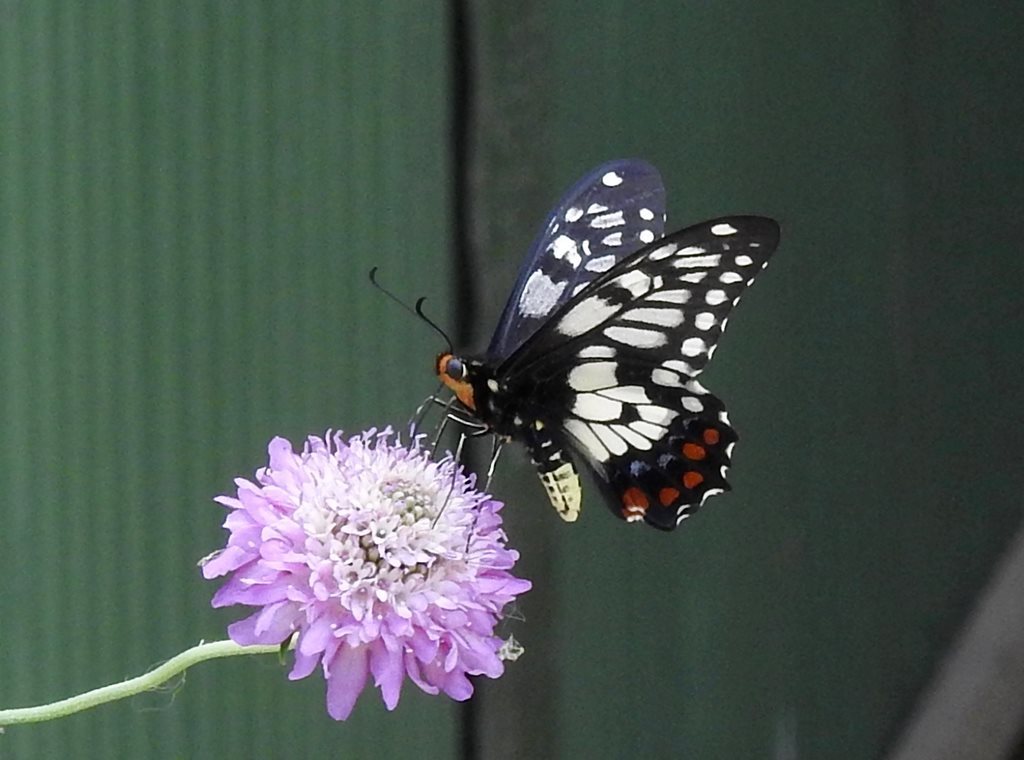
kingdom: Animalia
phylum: Arthropoda
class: Insecta
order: Lepidoptera
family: Papilionidae
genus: Papilio
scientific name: Papilio anactus
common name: Dingy swallowtail
